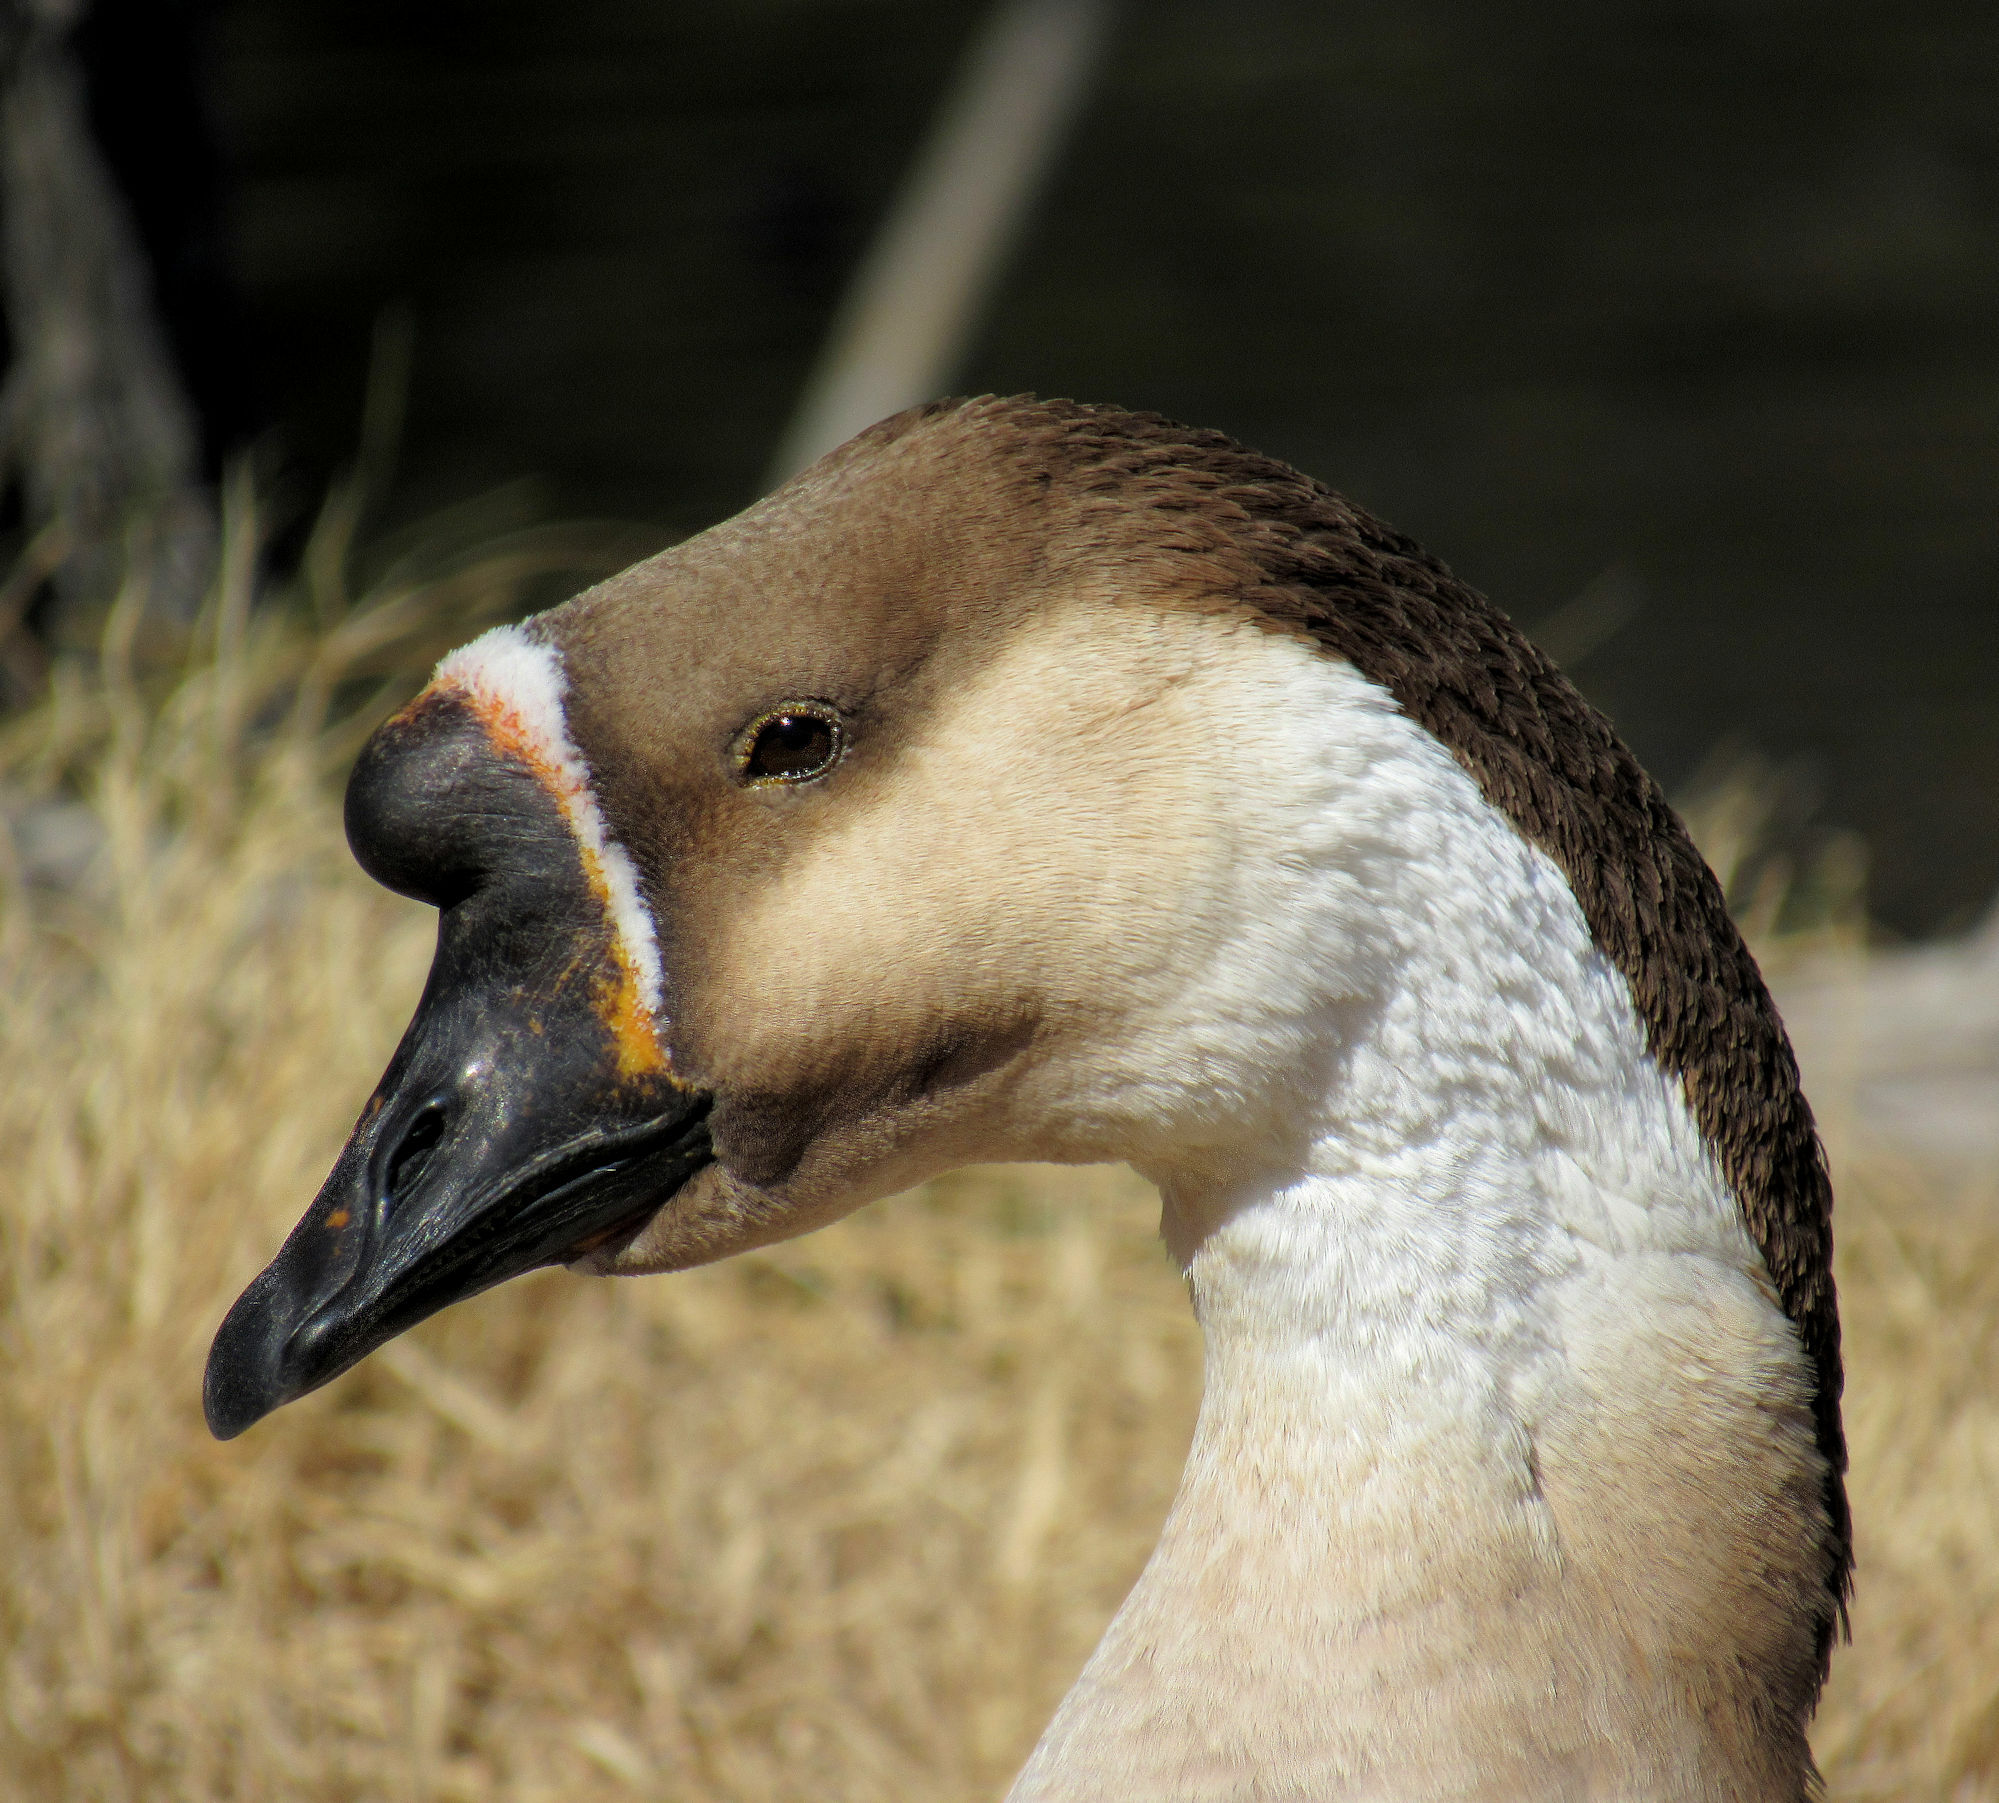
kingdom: Animalia
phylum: Chordata
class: Aves
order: Anseriformes
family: Anatidae
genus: Anser
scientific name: Anser cygnoides
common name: Swan goose
